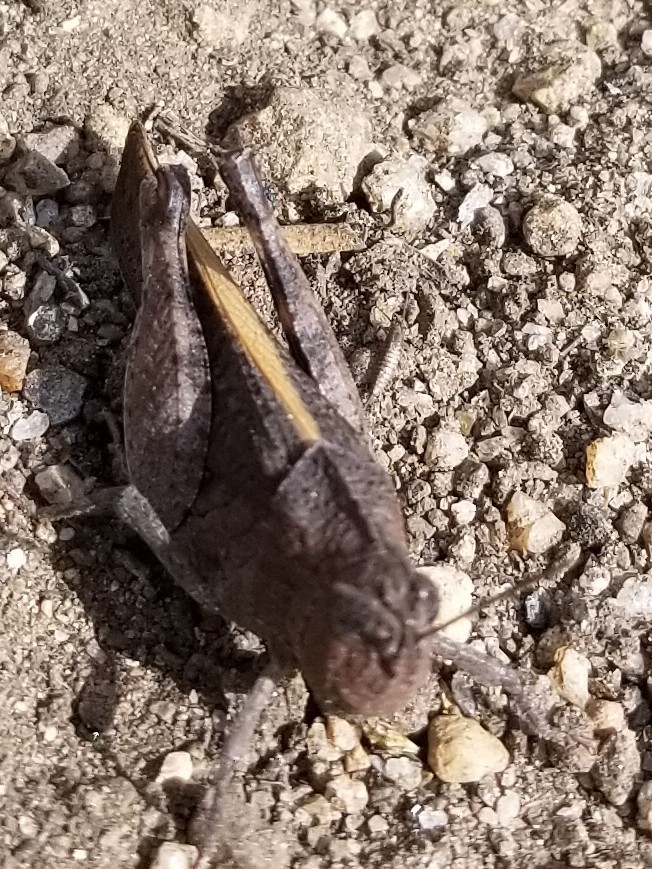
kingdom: Animalia
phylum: Arthropoda
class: Insecta
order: Orthoptera
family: Acrididae
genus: Arphia
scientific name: Arphia behrensi
